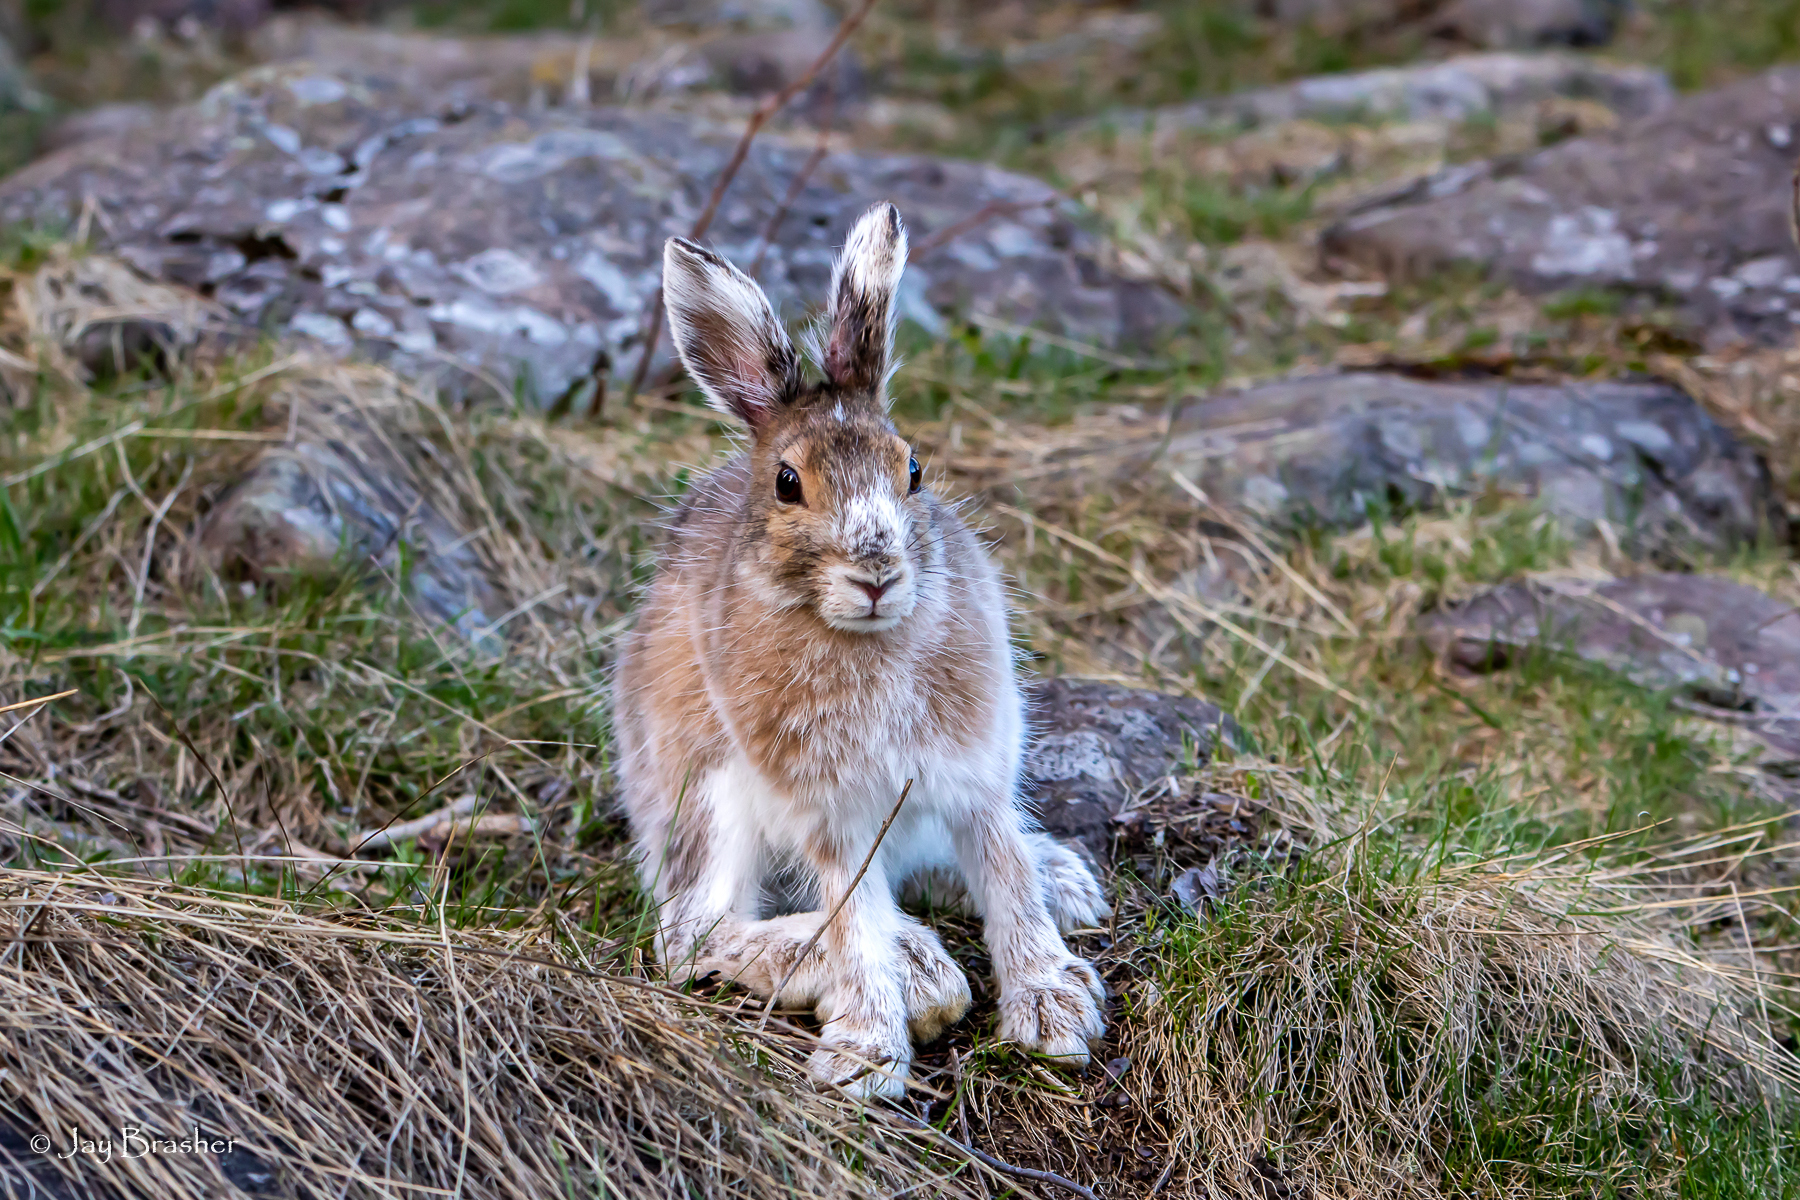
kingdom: Animalia
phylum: Chordata
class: Mammalia
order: Lagomorpha
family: Leporidae
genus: Lepus
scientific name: Lepus americanus
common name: Snowshoe hare
